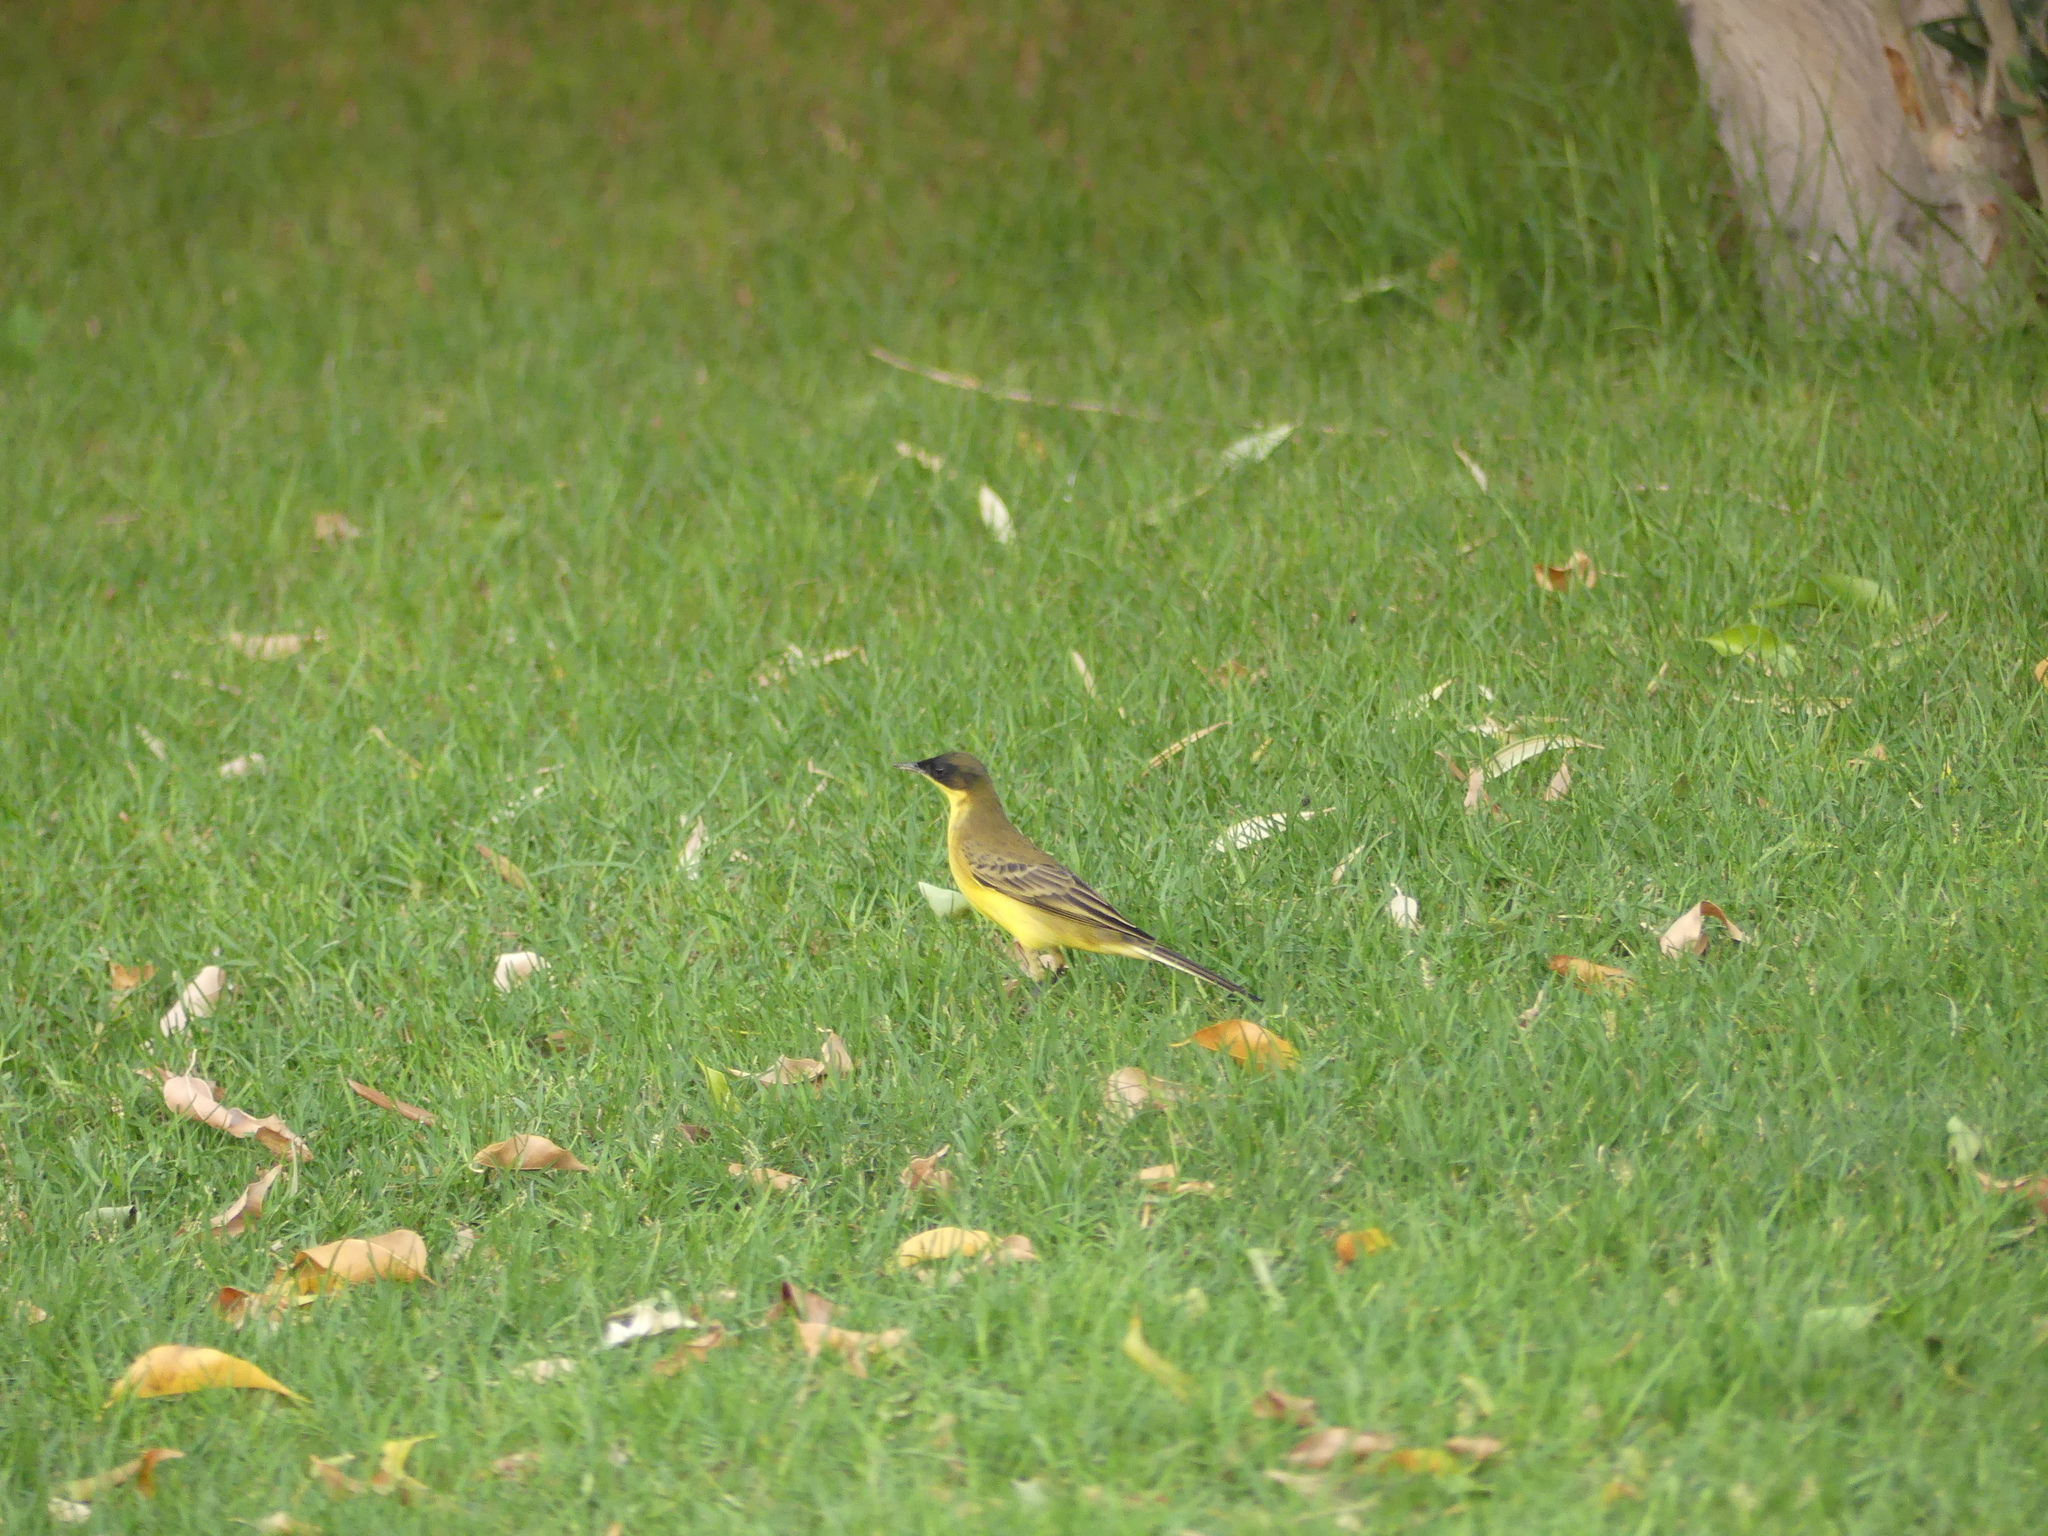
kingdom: Animalia
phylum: Chordata
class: Aves
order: Passeriformes
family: Motacillidae
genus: Motacilla
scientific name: Motacilla flava
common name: Western yellow wagtail
